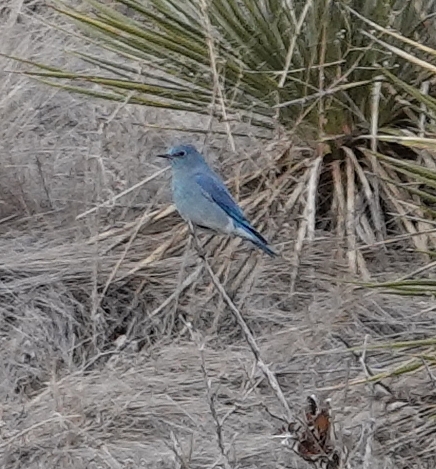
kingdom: Animalia
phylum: Chordata
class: Aves
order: Passeriformes
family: Turdidae
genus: Sialia
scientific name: Sialia currucoides
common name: Mountain bluebird
